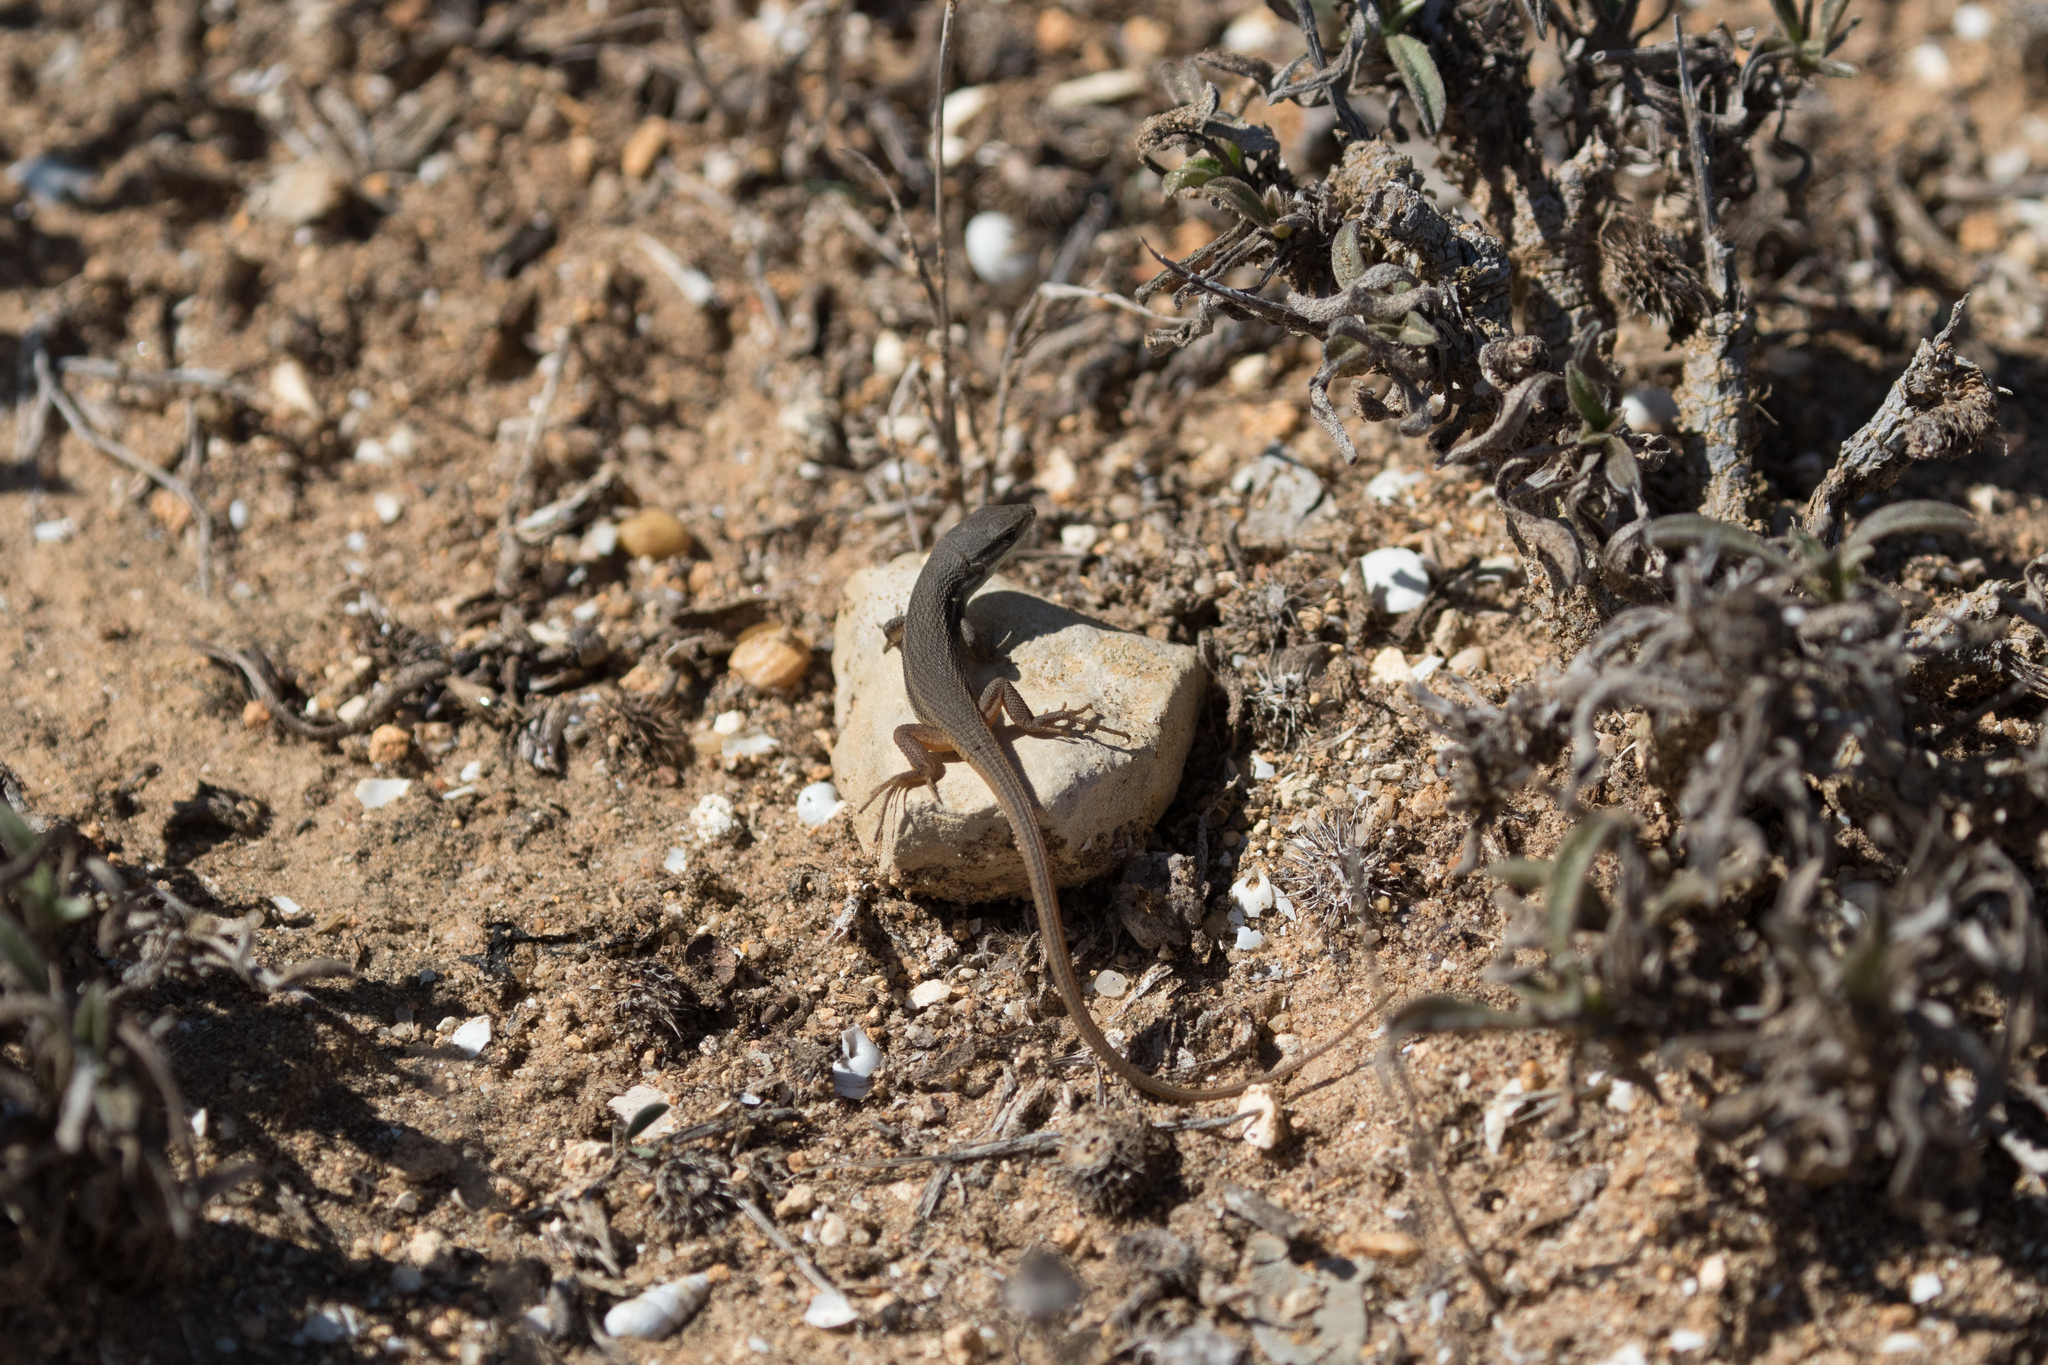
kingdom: Animalia
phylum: Chordata
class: Squamata
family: Lacertidae
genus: Psammodromus
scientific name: Psammodromus algirus
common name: Algerian psammodromus
